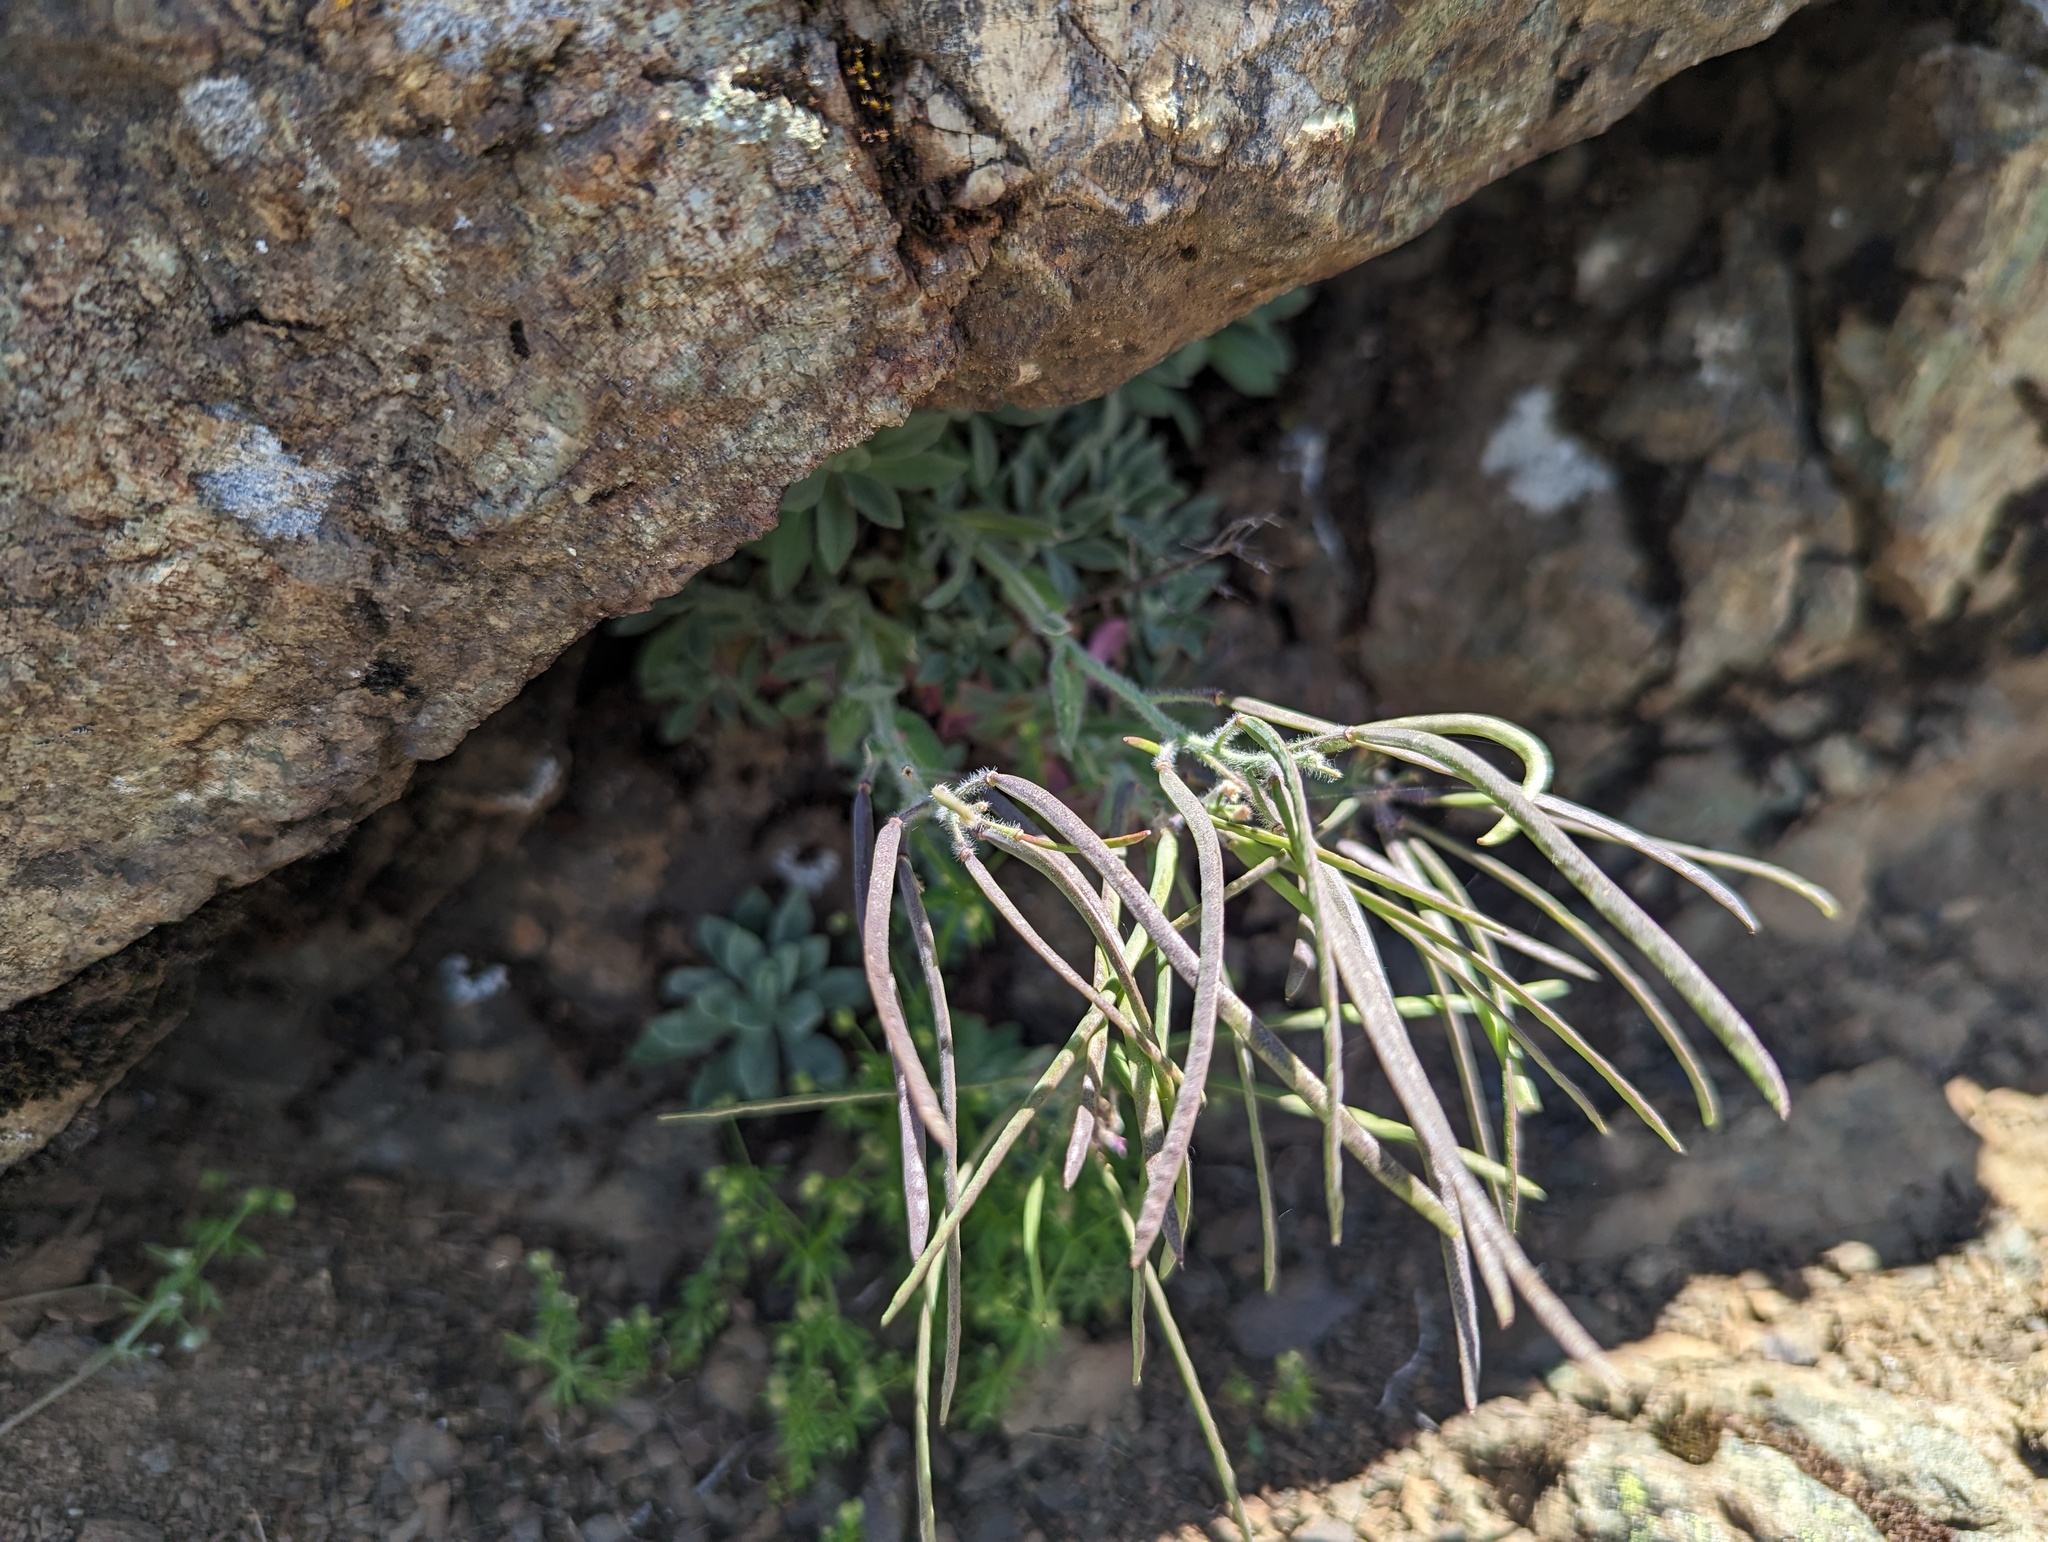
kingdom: Plantae
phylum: Tracheophyta
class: Magnoliopsida
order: Brassicales
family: Brassicaceae
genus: Boechera
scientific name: Boechera breweri
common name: Brewer's rockcress
